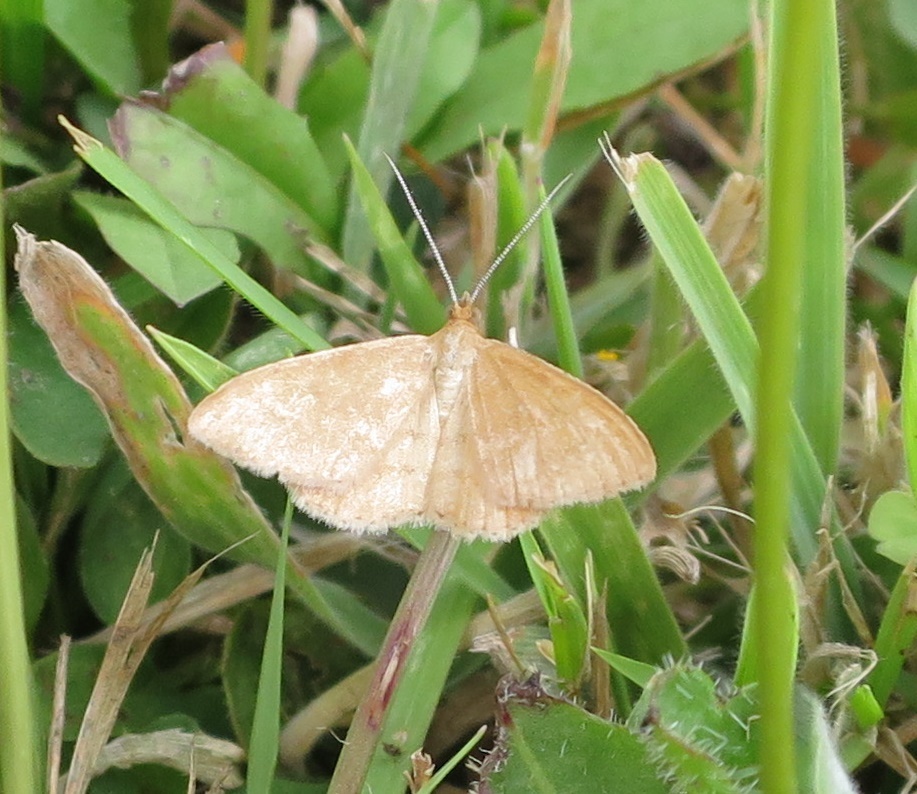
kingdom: Animalia
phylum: Arthropoda
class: Insecta
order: Lepidoptera
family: Geometridae
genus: Scopula
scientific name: Scopula rubraria
